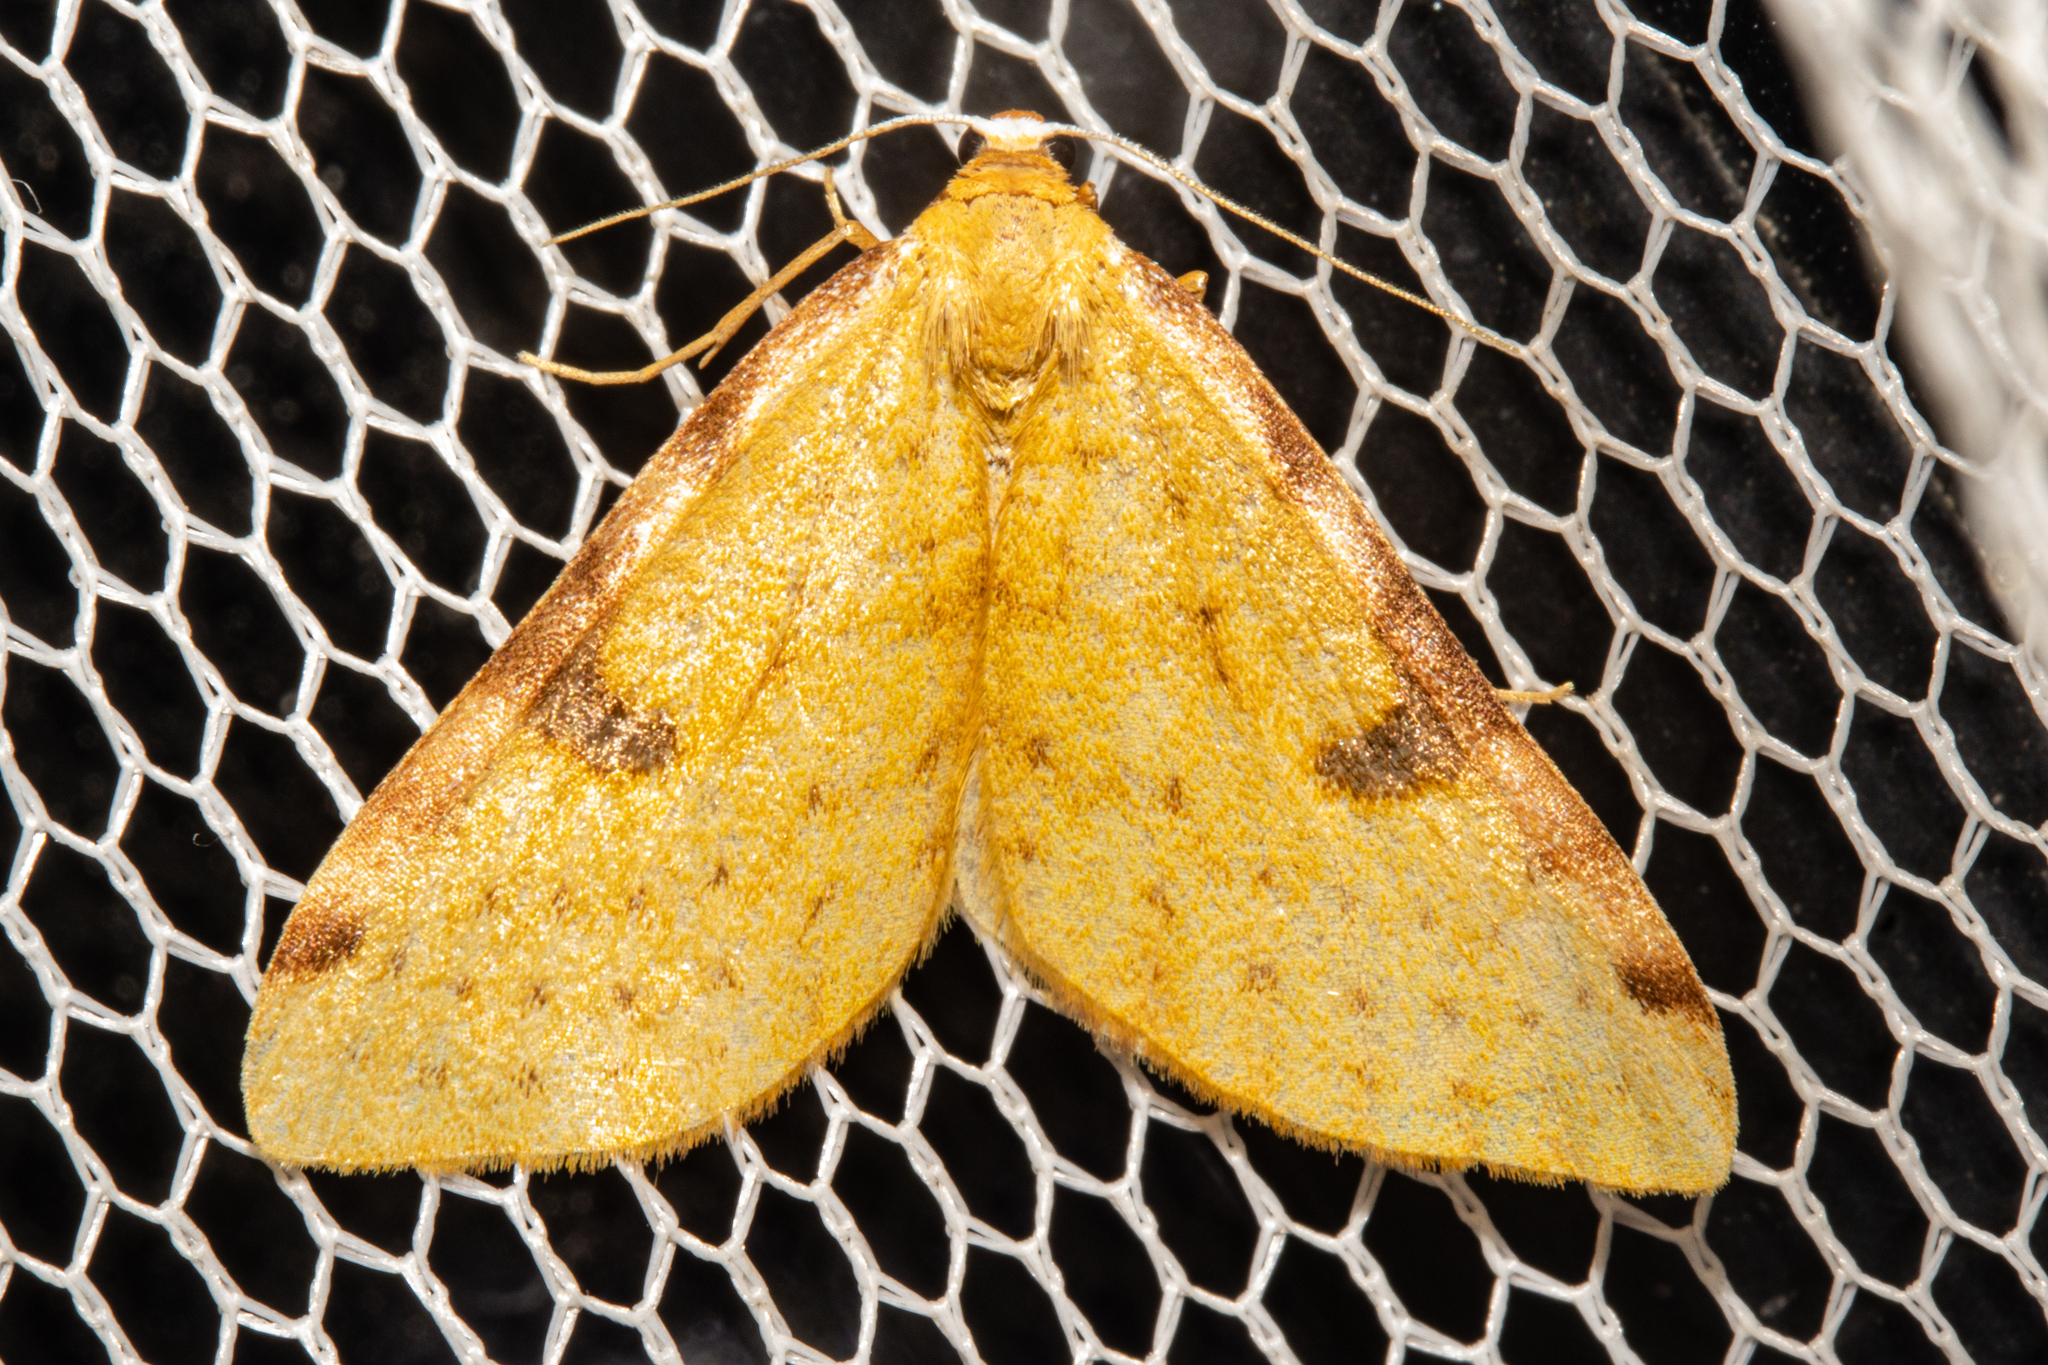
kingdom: Animalia
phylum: Arthropoda
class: Insecta
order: Lepidoptera
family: Geometridae
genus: Epiphryne
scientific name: Epiphryne xanthaspis
